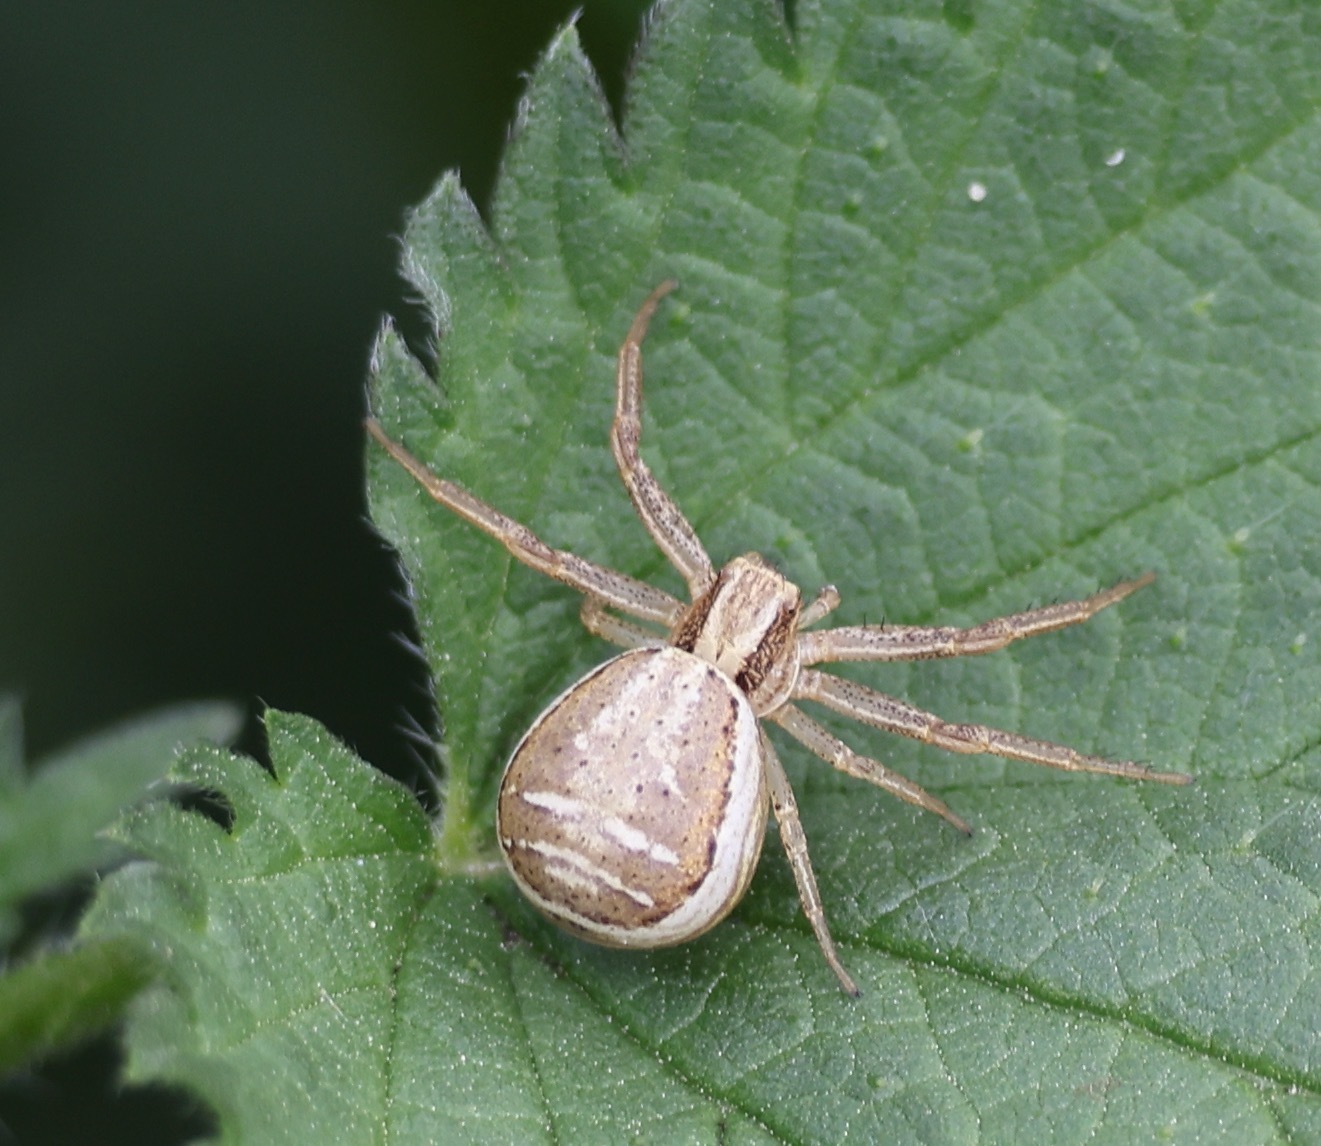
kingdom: Animalia
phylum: Arthropoda
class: Arachnida
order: Araneae
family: Thomisidae
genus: Xysticus
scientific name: Xysticus ulmi
